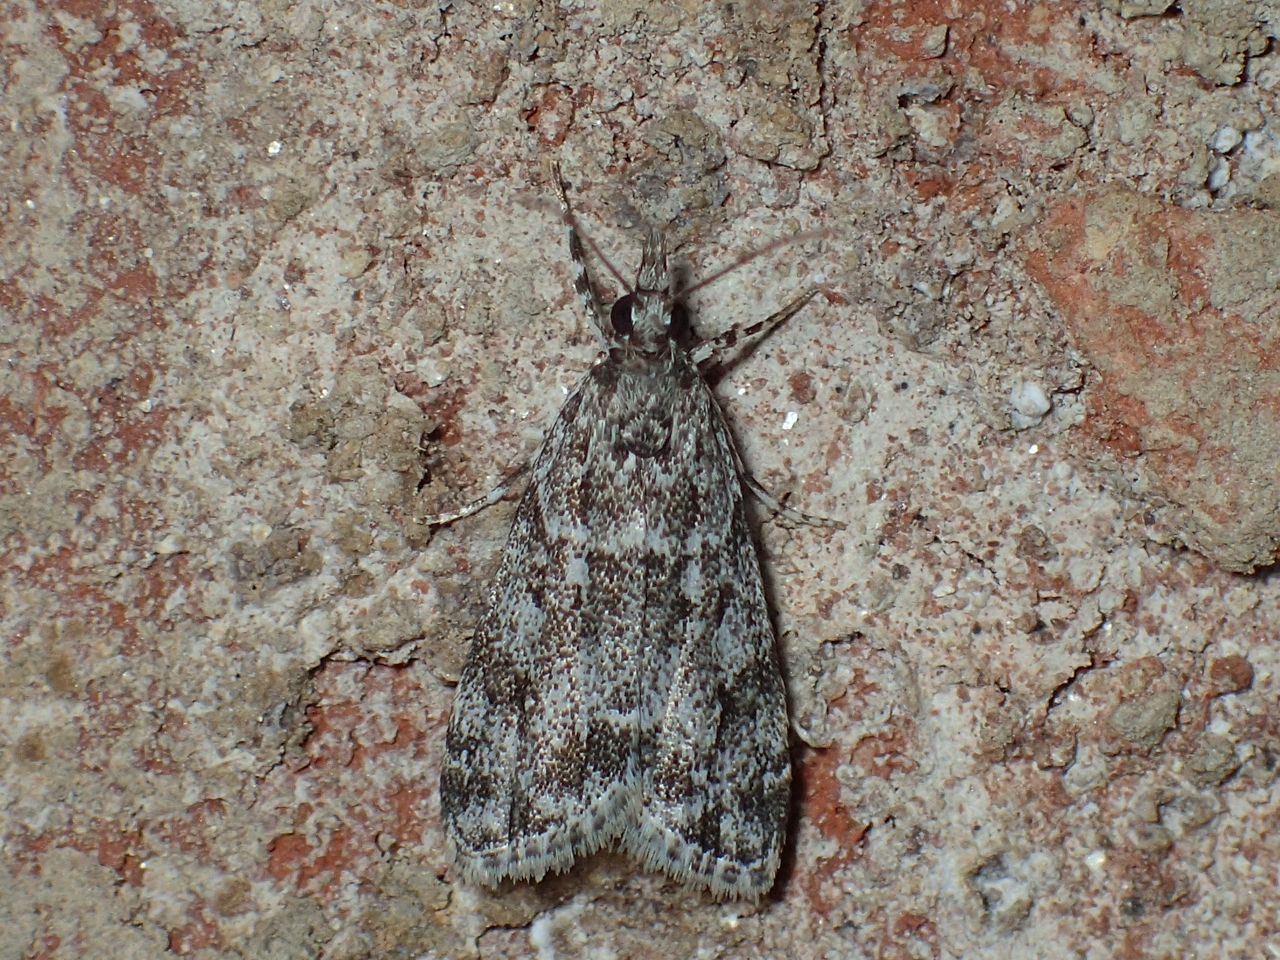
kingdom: Animalia
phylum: Arthropoda
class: Insecta
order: Lepidoptera
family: Crambidae
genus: Eudonia
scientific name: Eudonia heterosalis
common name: Mcdunnough's eudonia
